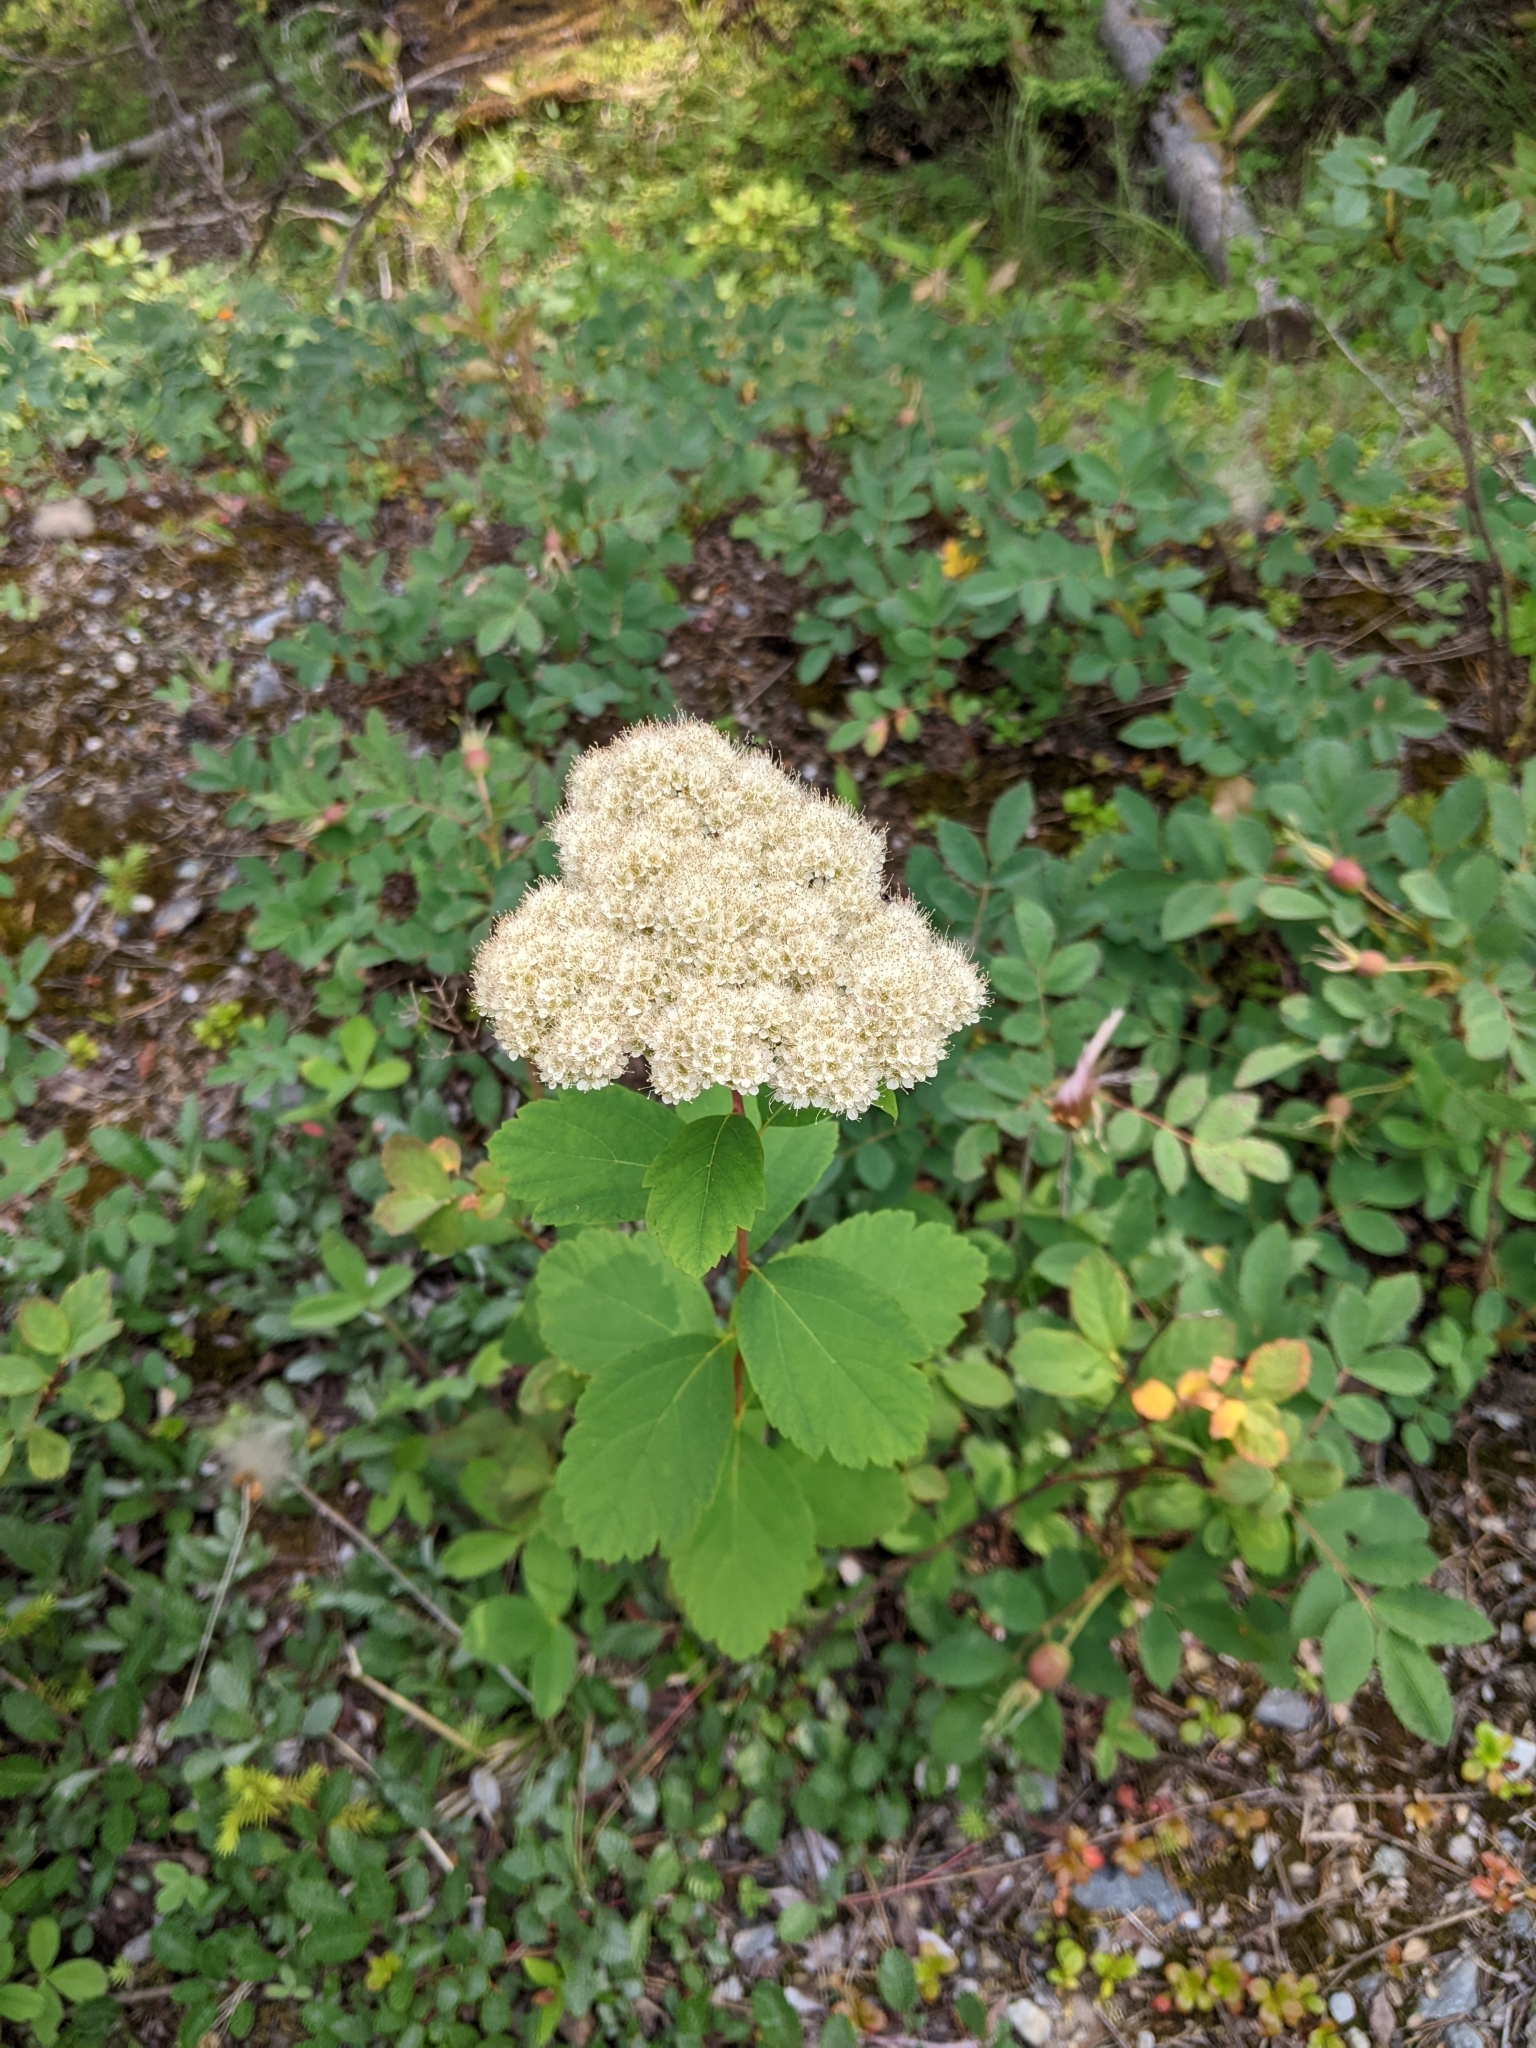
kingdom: Plantae
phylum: Tracheophyta
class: Magnoliopsida
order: Rosales
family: Rosaceae
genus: Spiraea
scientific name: Spiraea lucida
